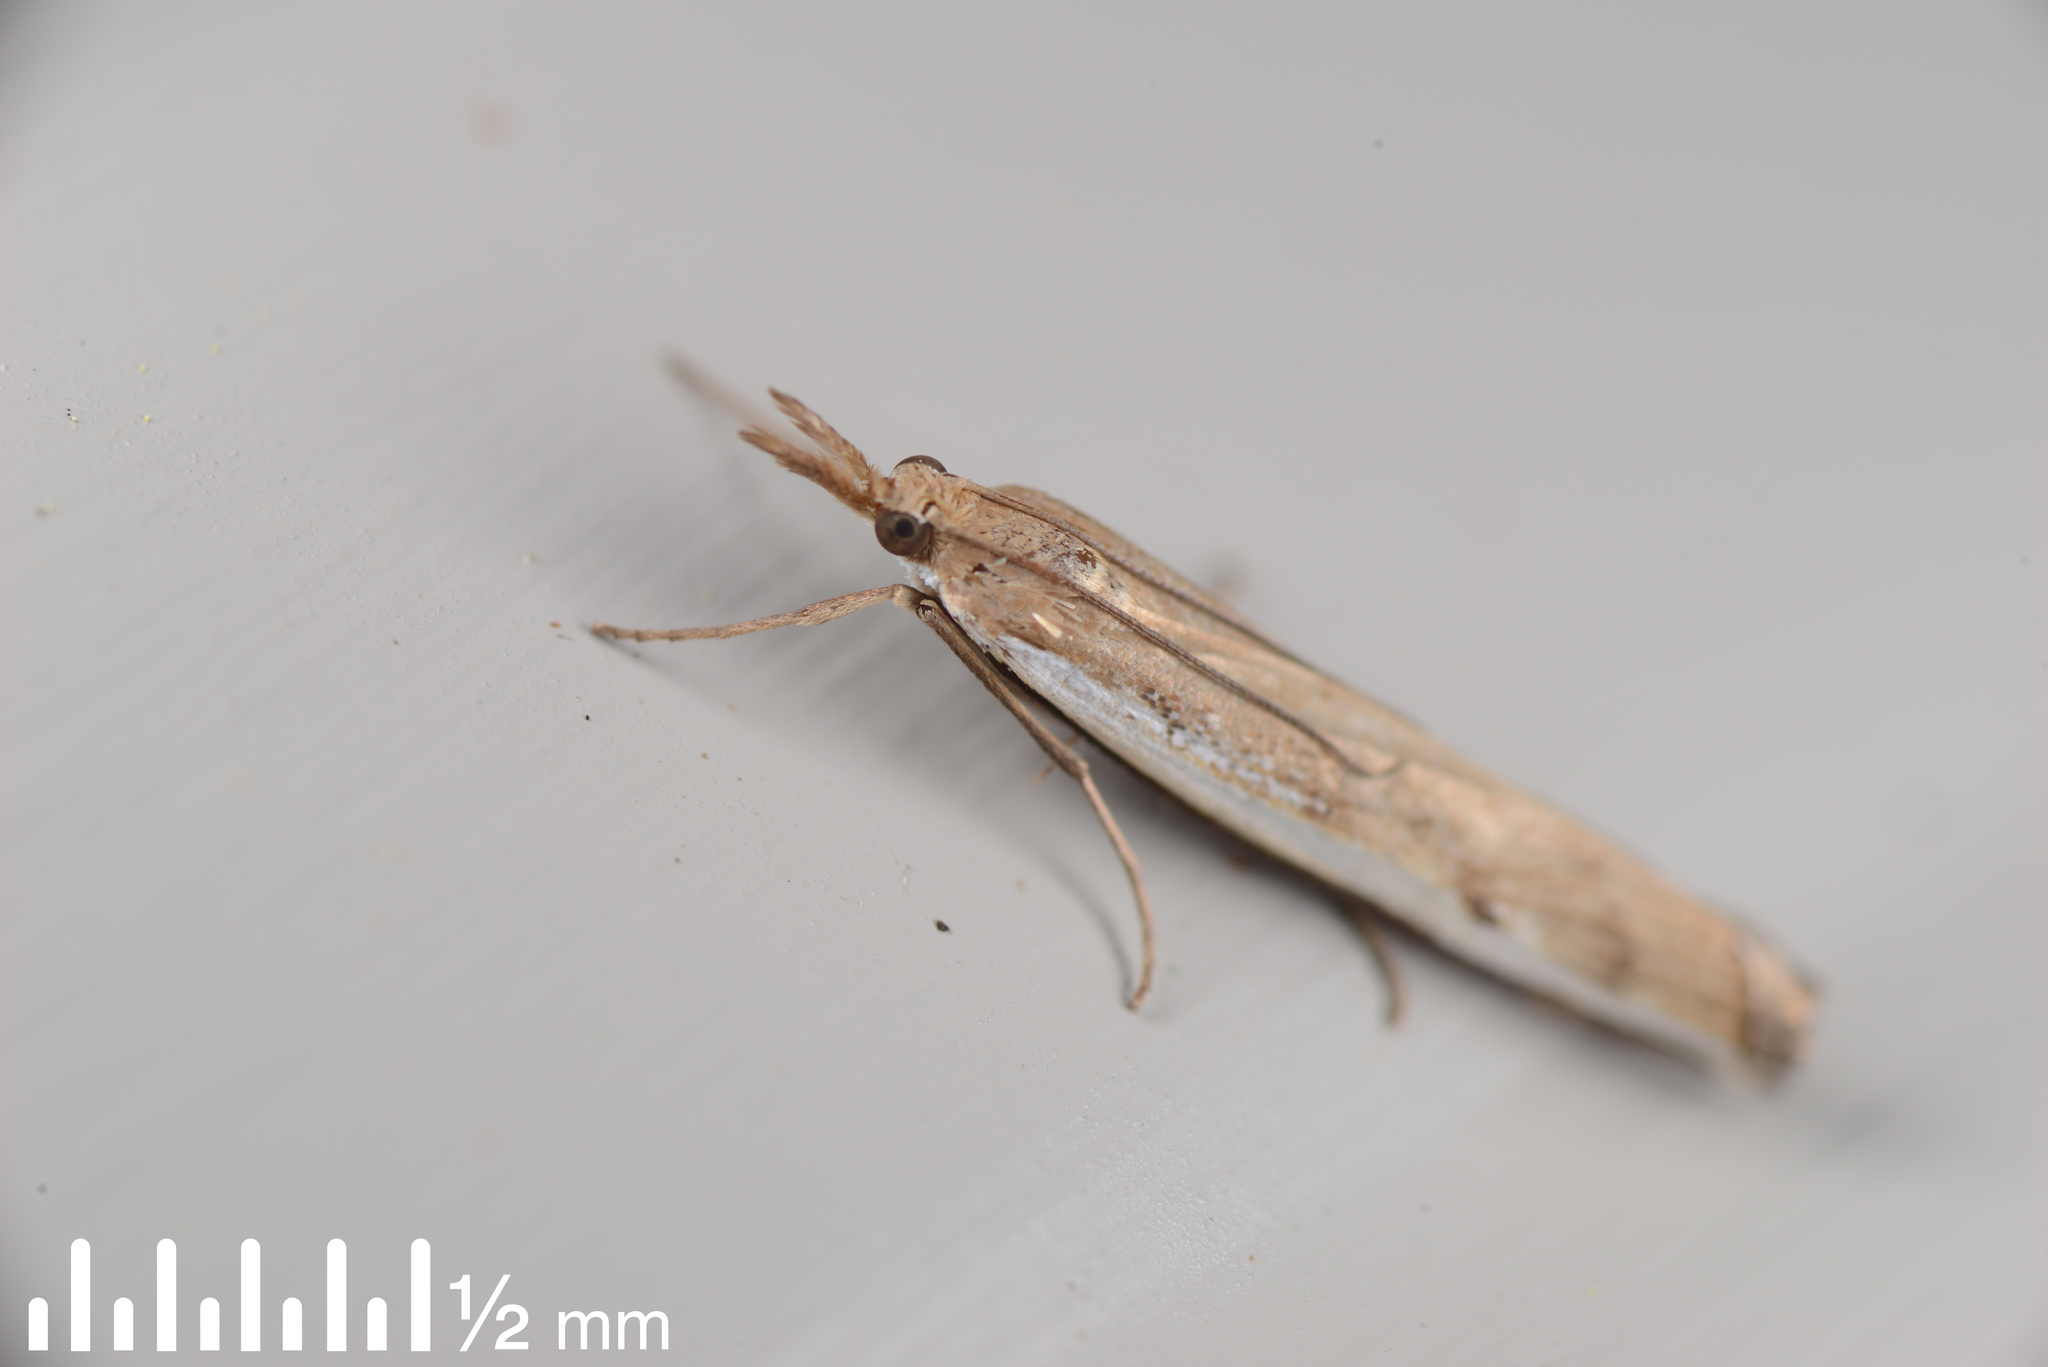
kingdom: Animalia
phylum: Arthropoda
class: Insecta
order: Lepidoptera
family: Crambidae
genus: Orocrambus
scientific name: Orocrambus flexuosellus
